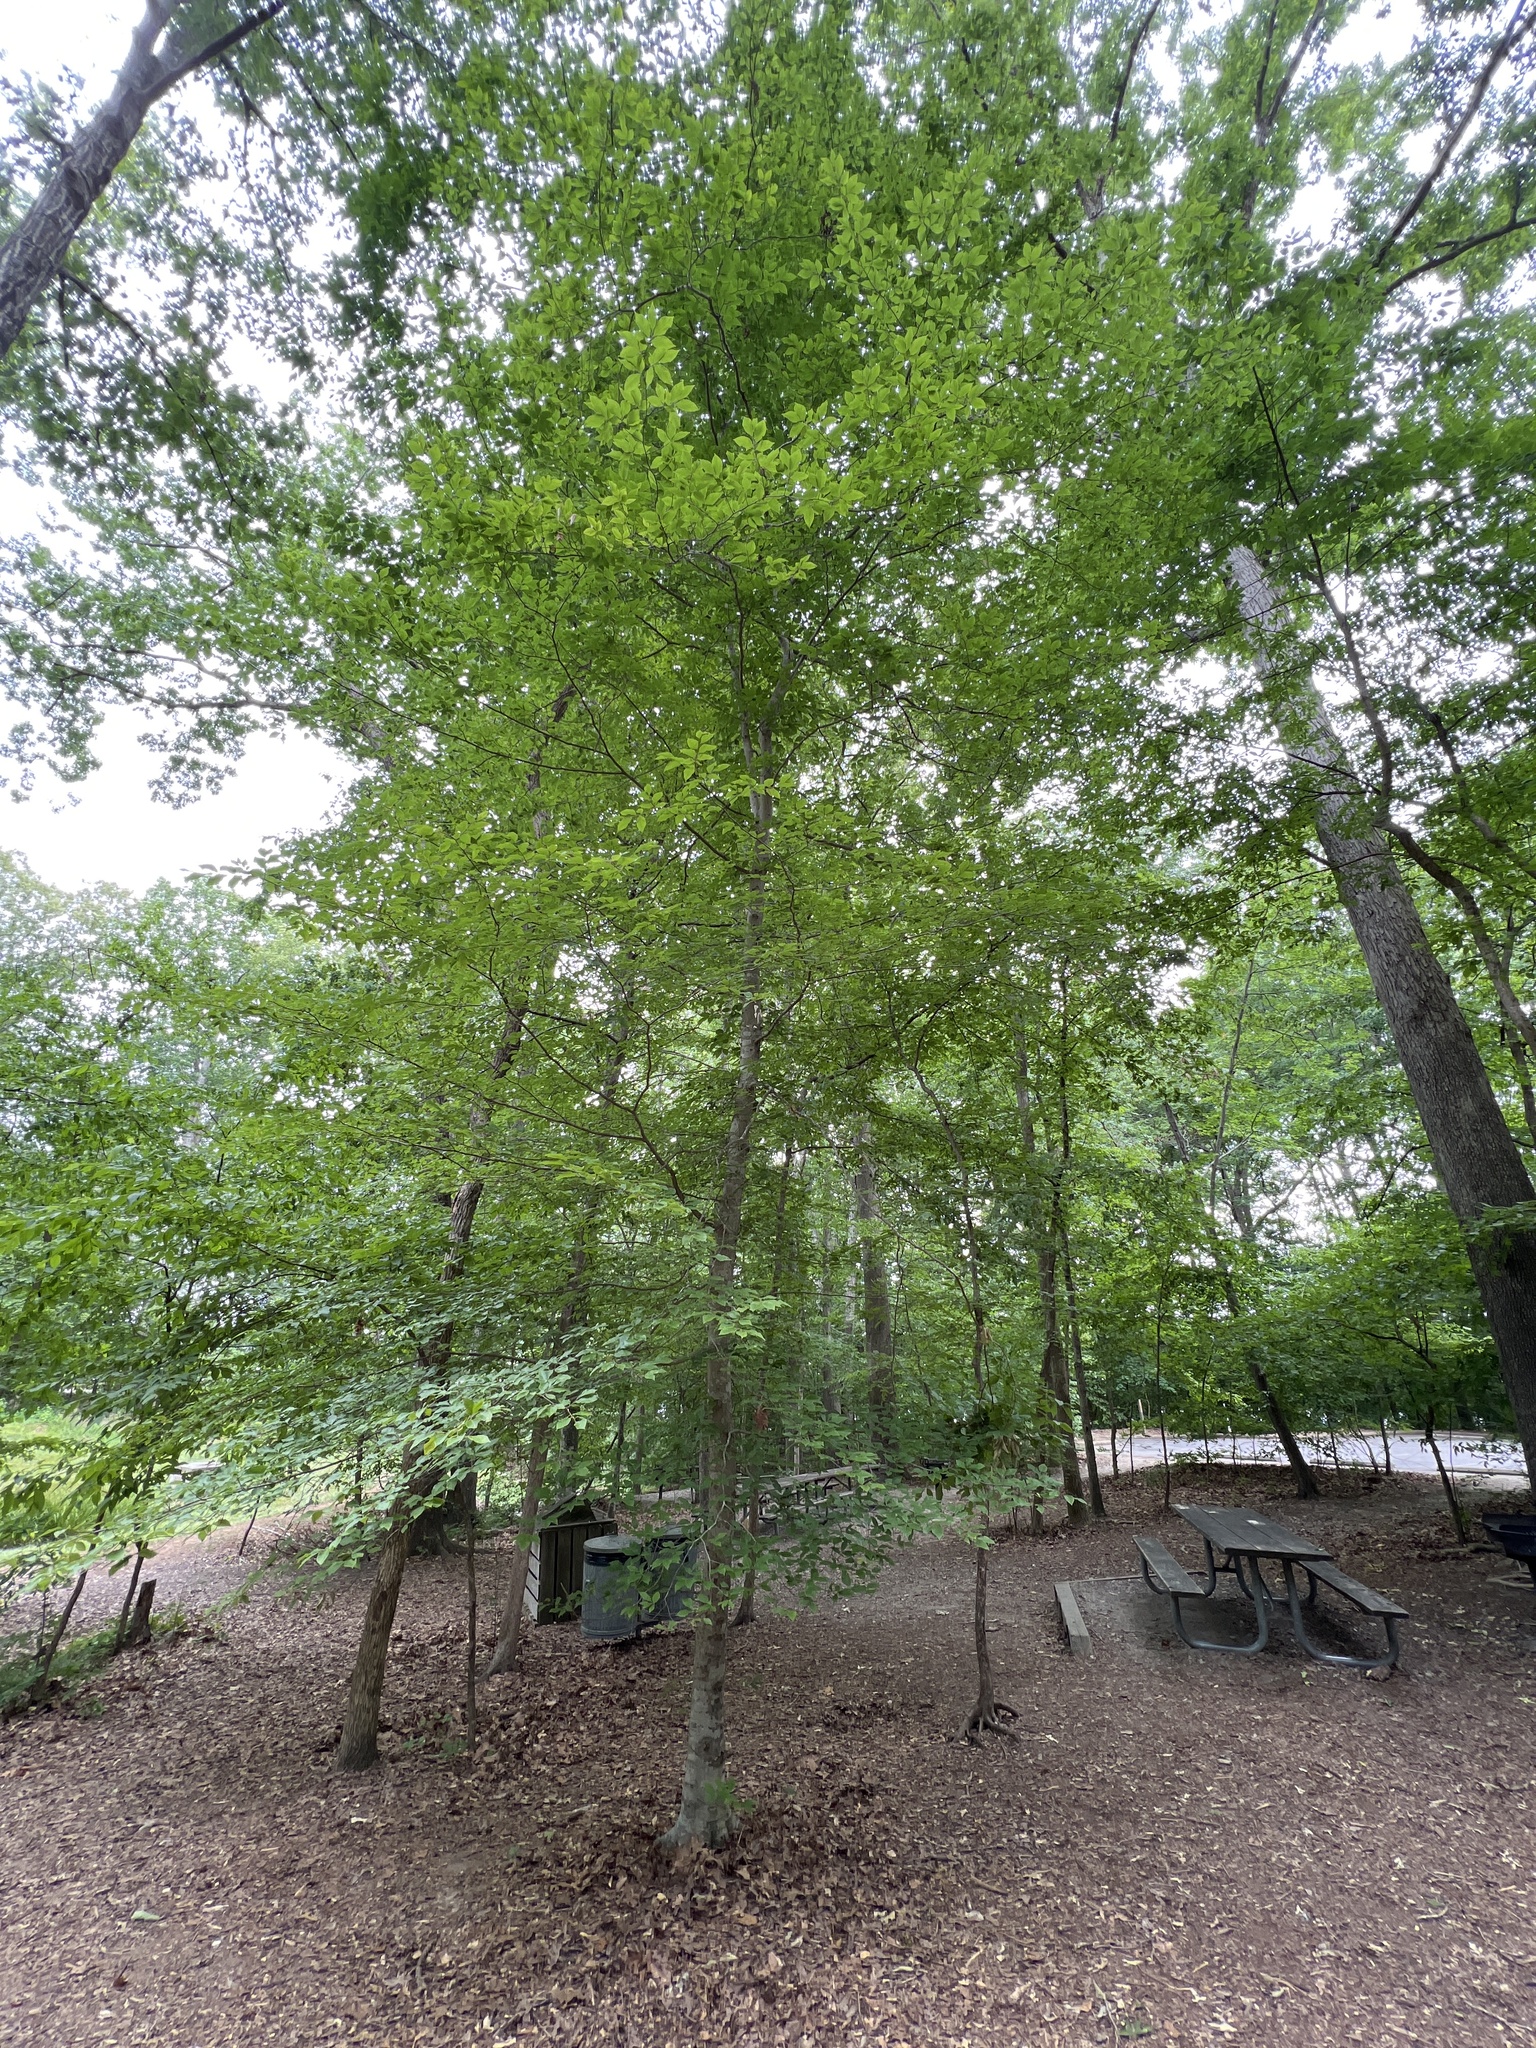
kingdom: Plantae
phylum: Tracheophyta
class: Magnoliopsida
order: Fagales
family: Fagaceae
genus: Fagus
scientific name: Fagus grandifolia
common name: American beech
